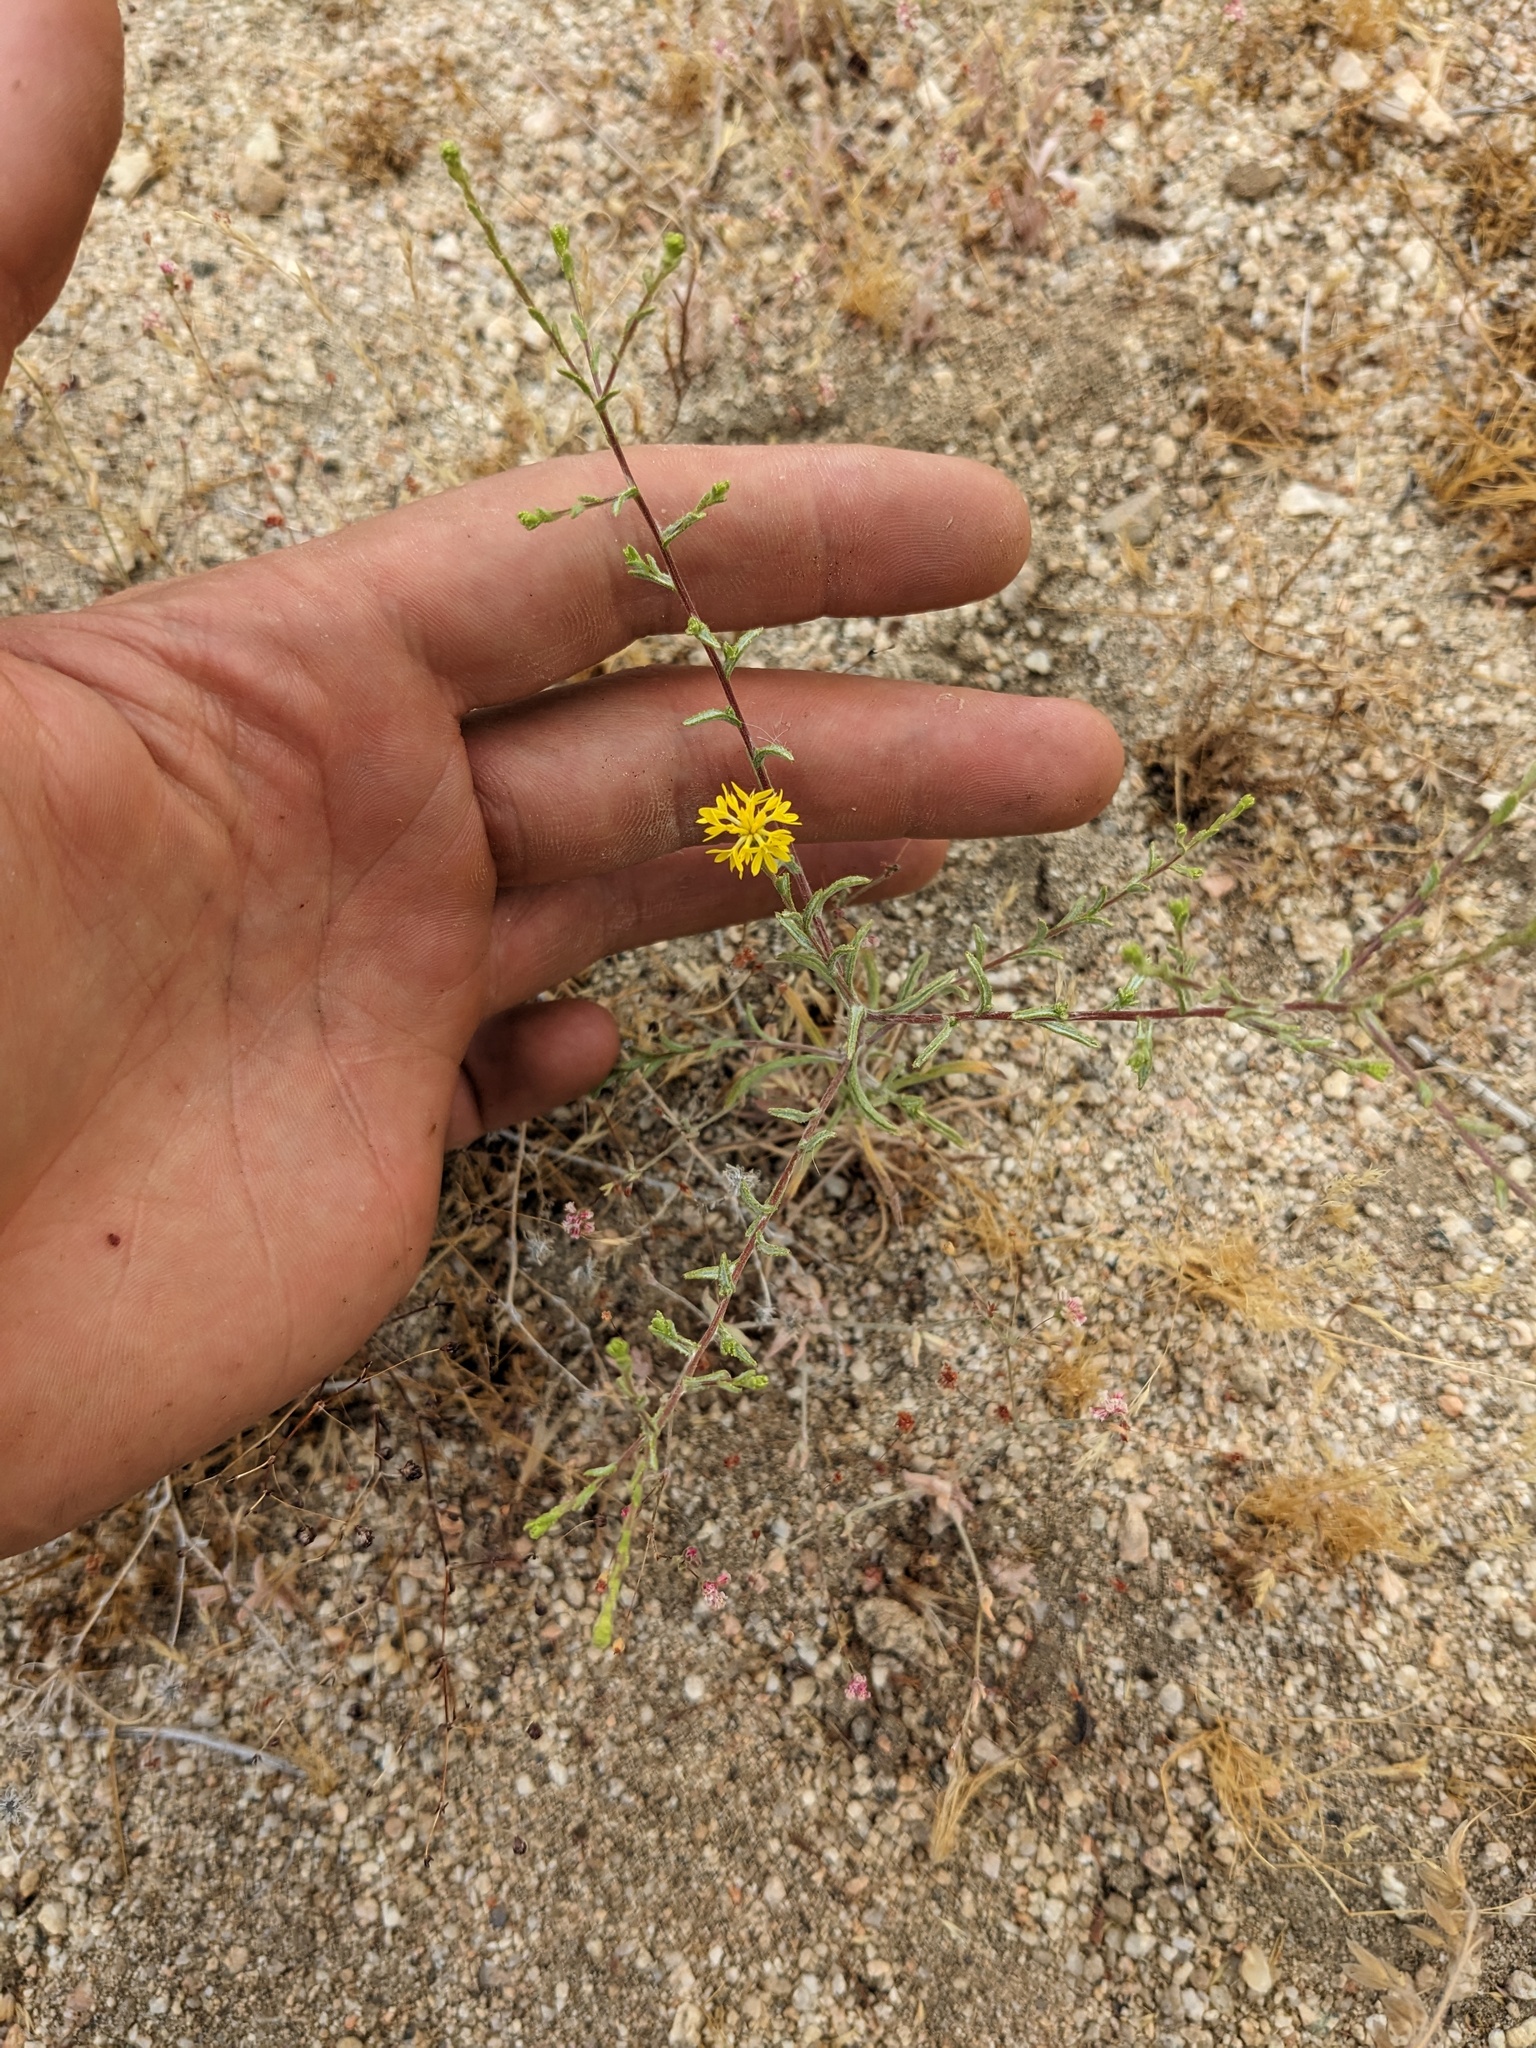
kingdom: Plantae
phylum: Tracheophyta
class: Magnoliopsida
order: Asterales
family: Asteraceae
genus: Lessingia
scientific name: Lessingia glandulifera
